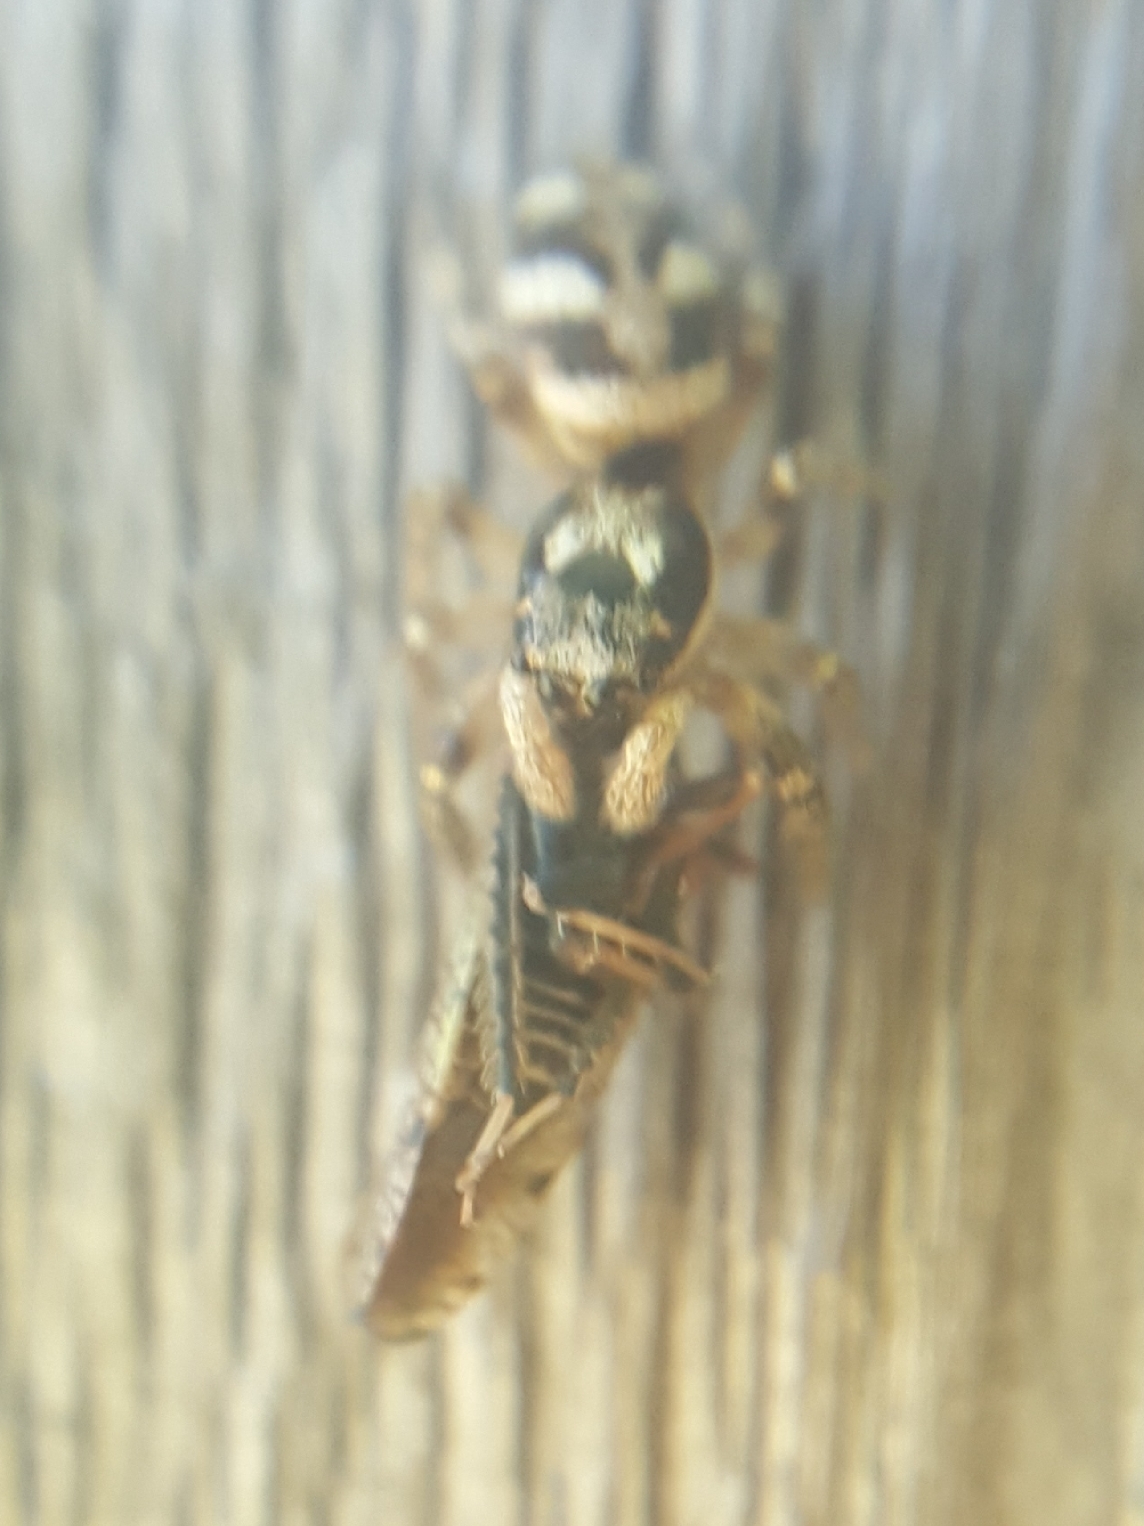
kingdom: Animalia
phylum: Arthropoda
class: Arachnida
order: Araneae
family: Salticidae
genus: Salticus
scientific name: Salticus scenicus
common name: Zebra jumper
